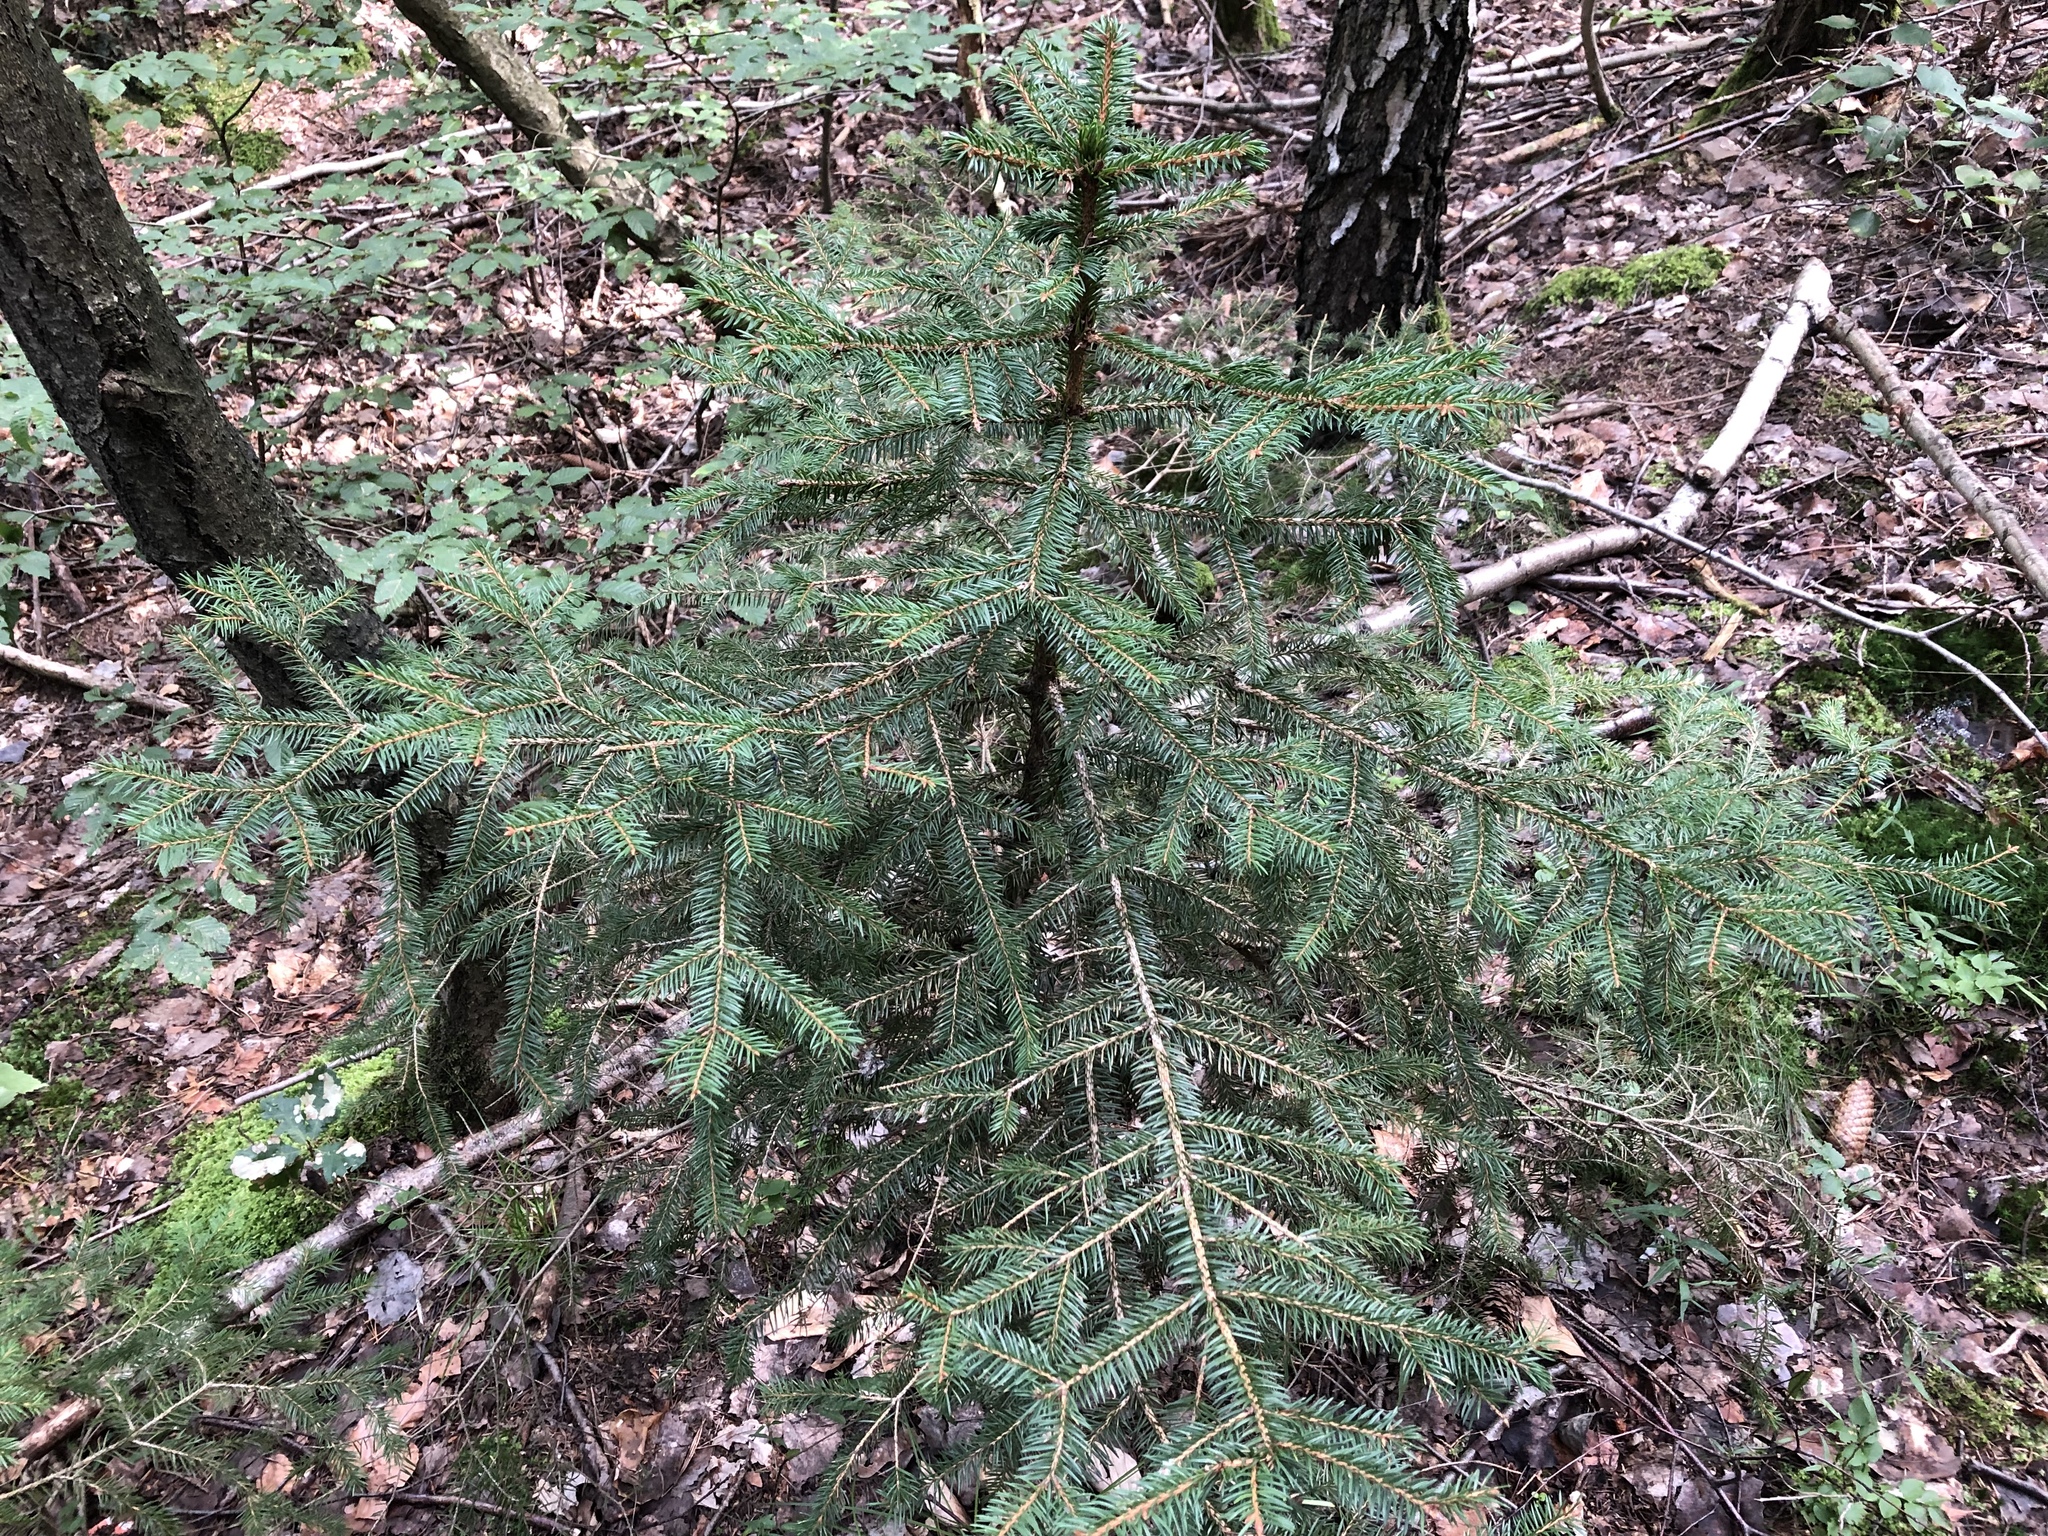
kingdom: Plantae
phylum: Tracheophyta
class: Pinopsida
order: Pinales
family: Pinaceae
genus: Picea
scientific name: Picea abies
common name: Norway spruce
